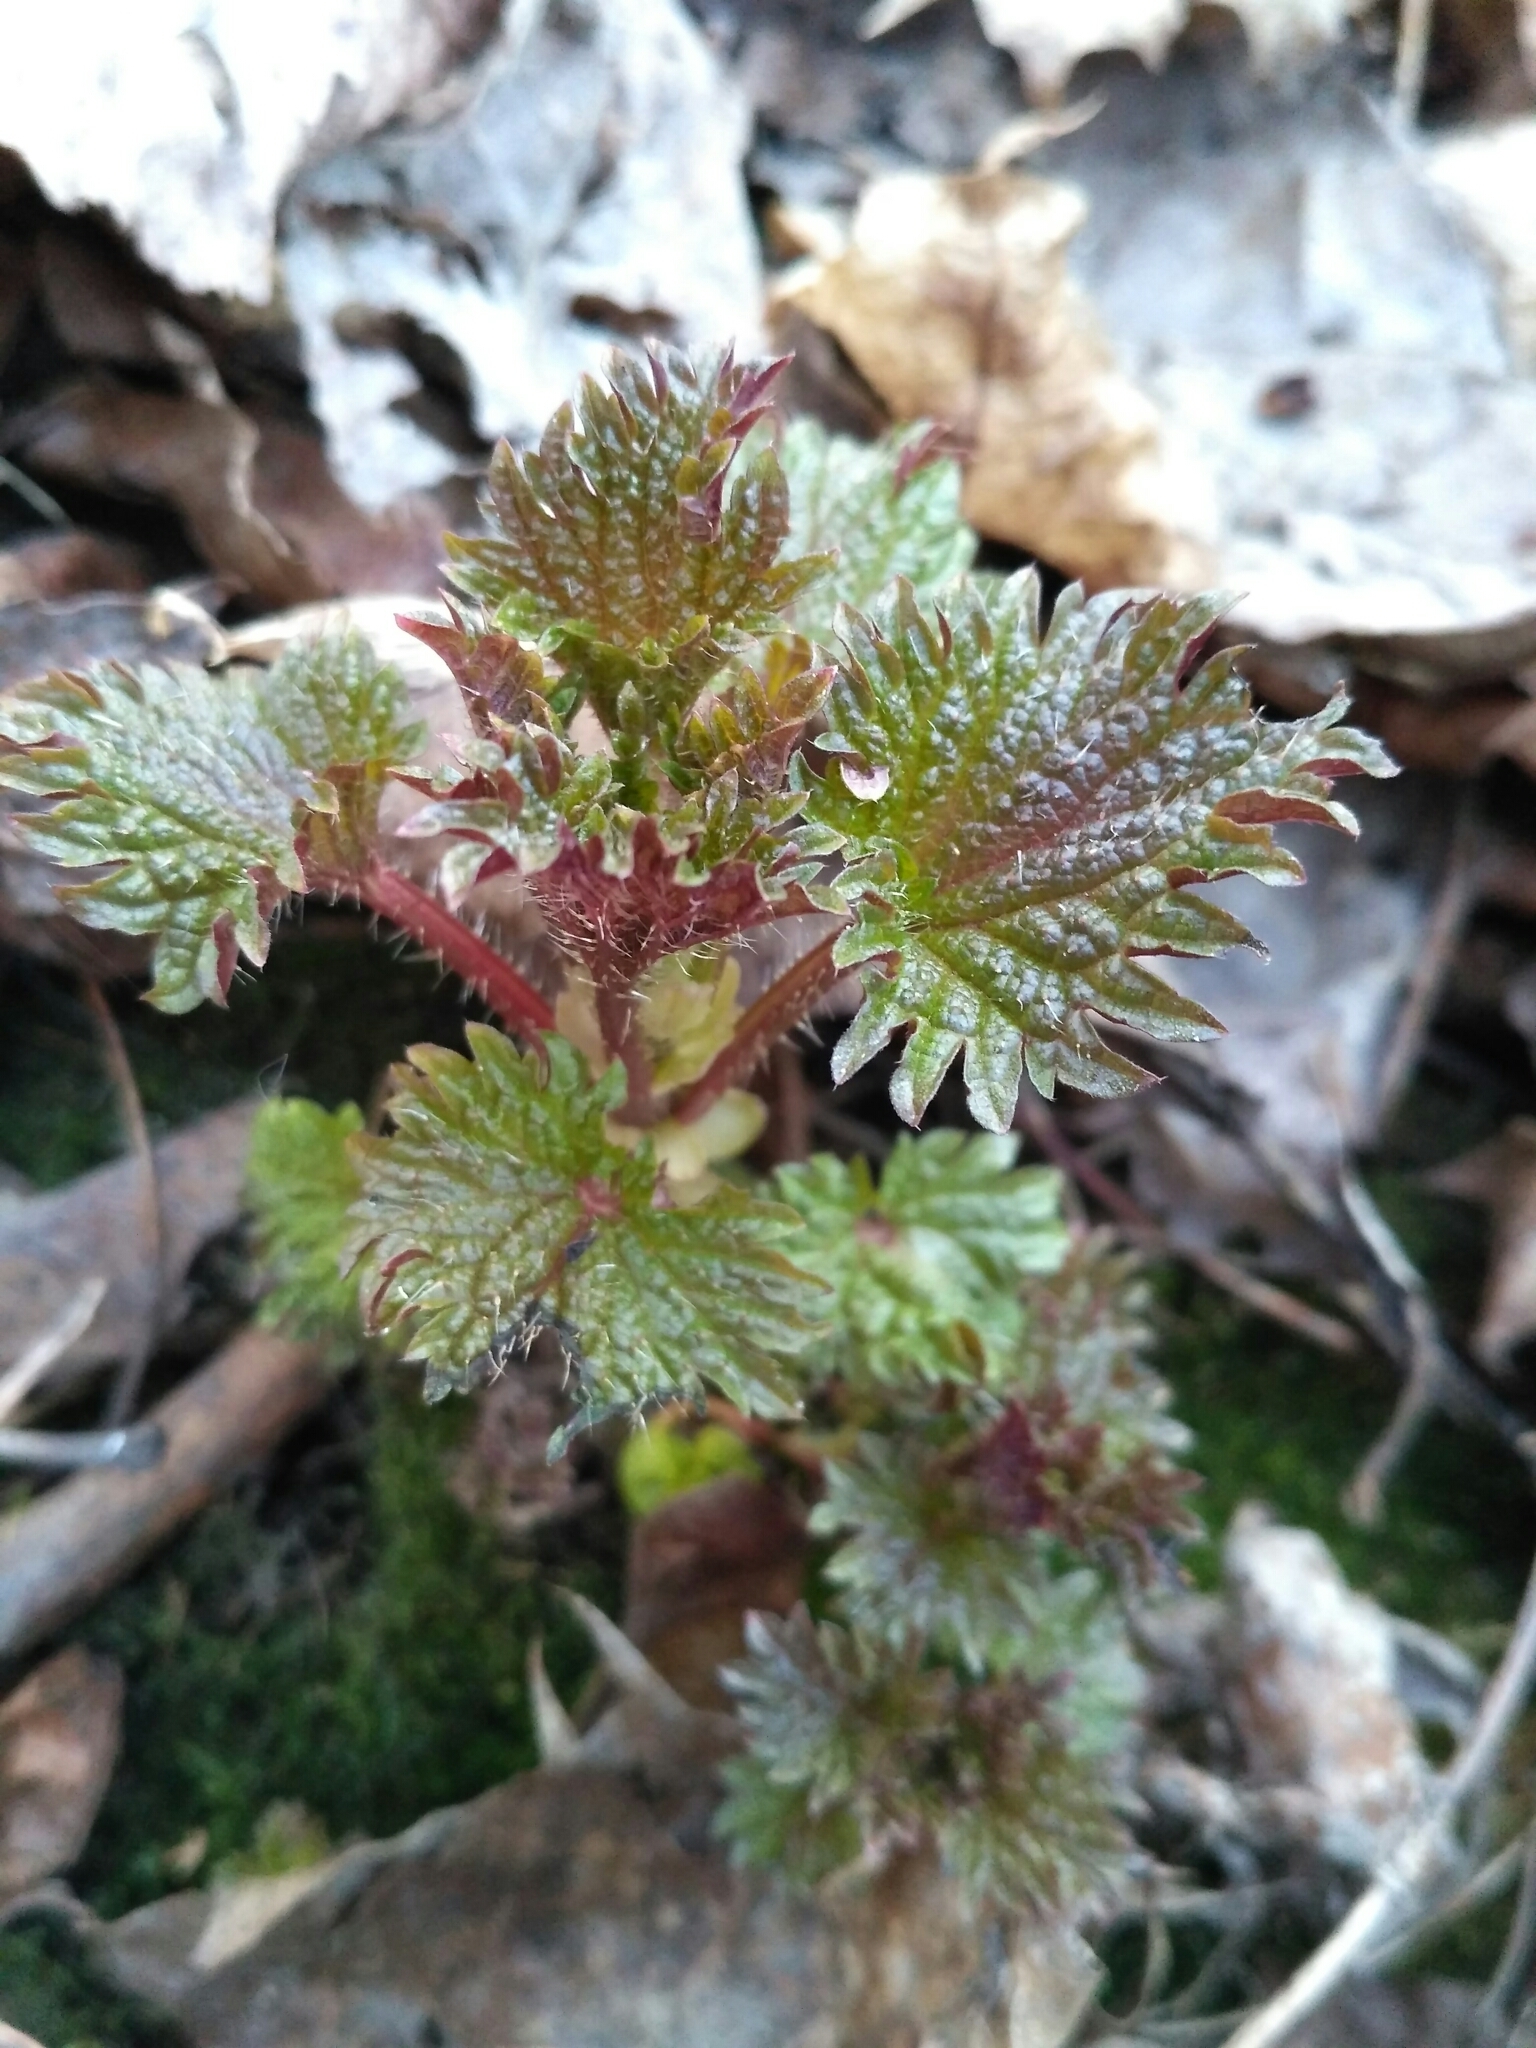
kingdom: Plantae
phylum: Tracheophyta
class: Magnoliopsida
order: Rosales
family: Urticaceae
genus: Urtica
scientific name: Urtica dioica
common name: Common nettle
